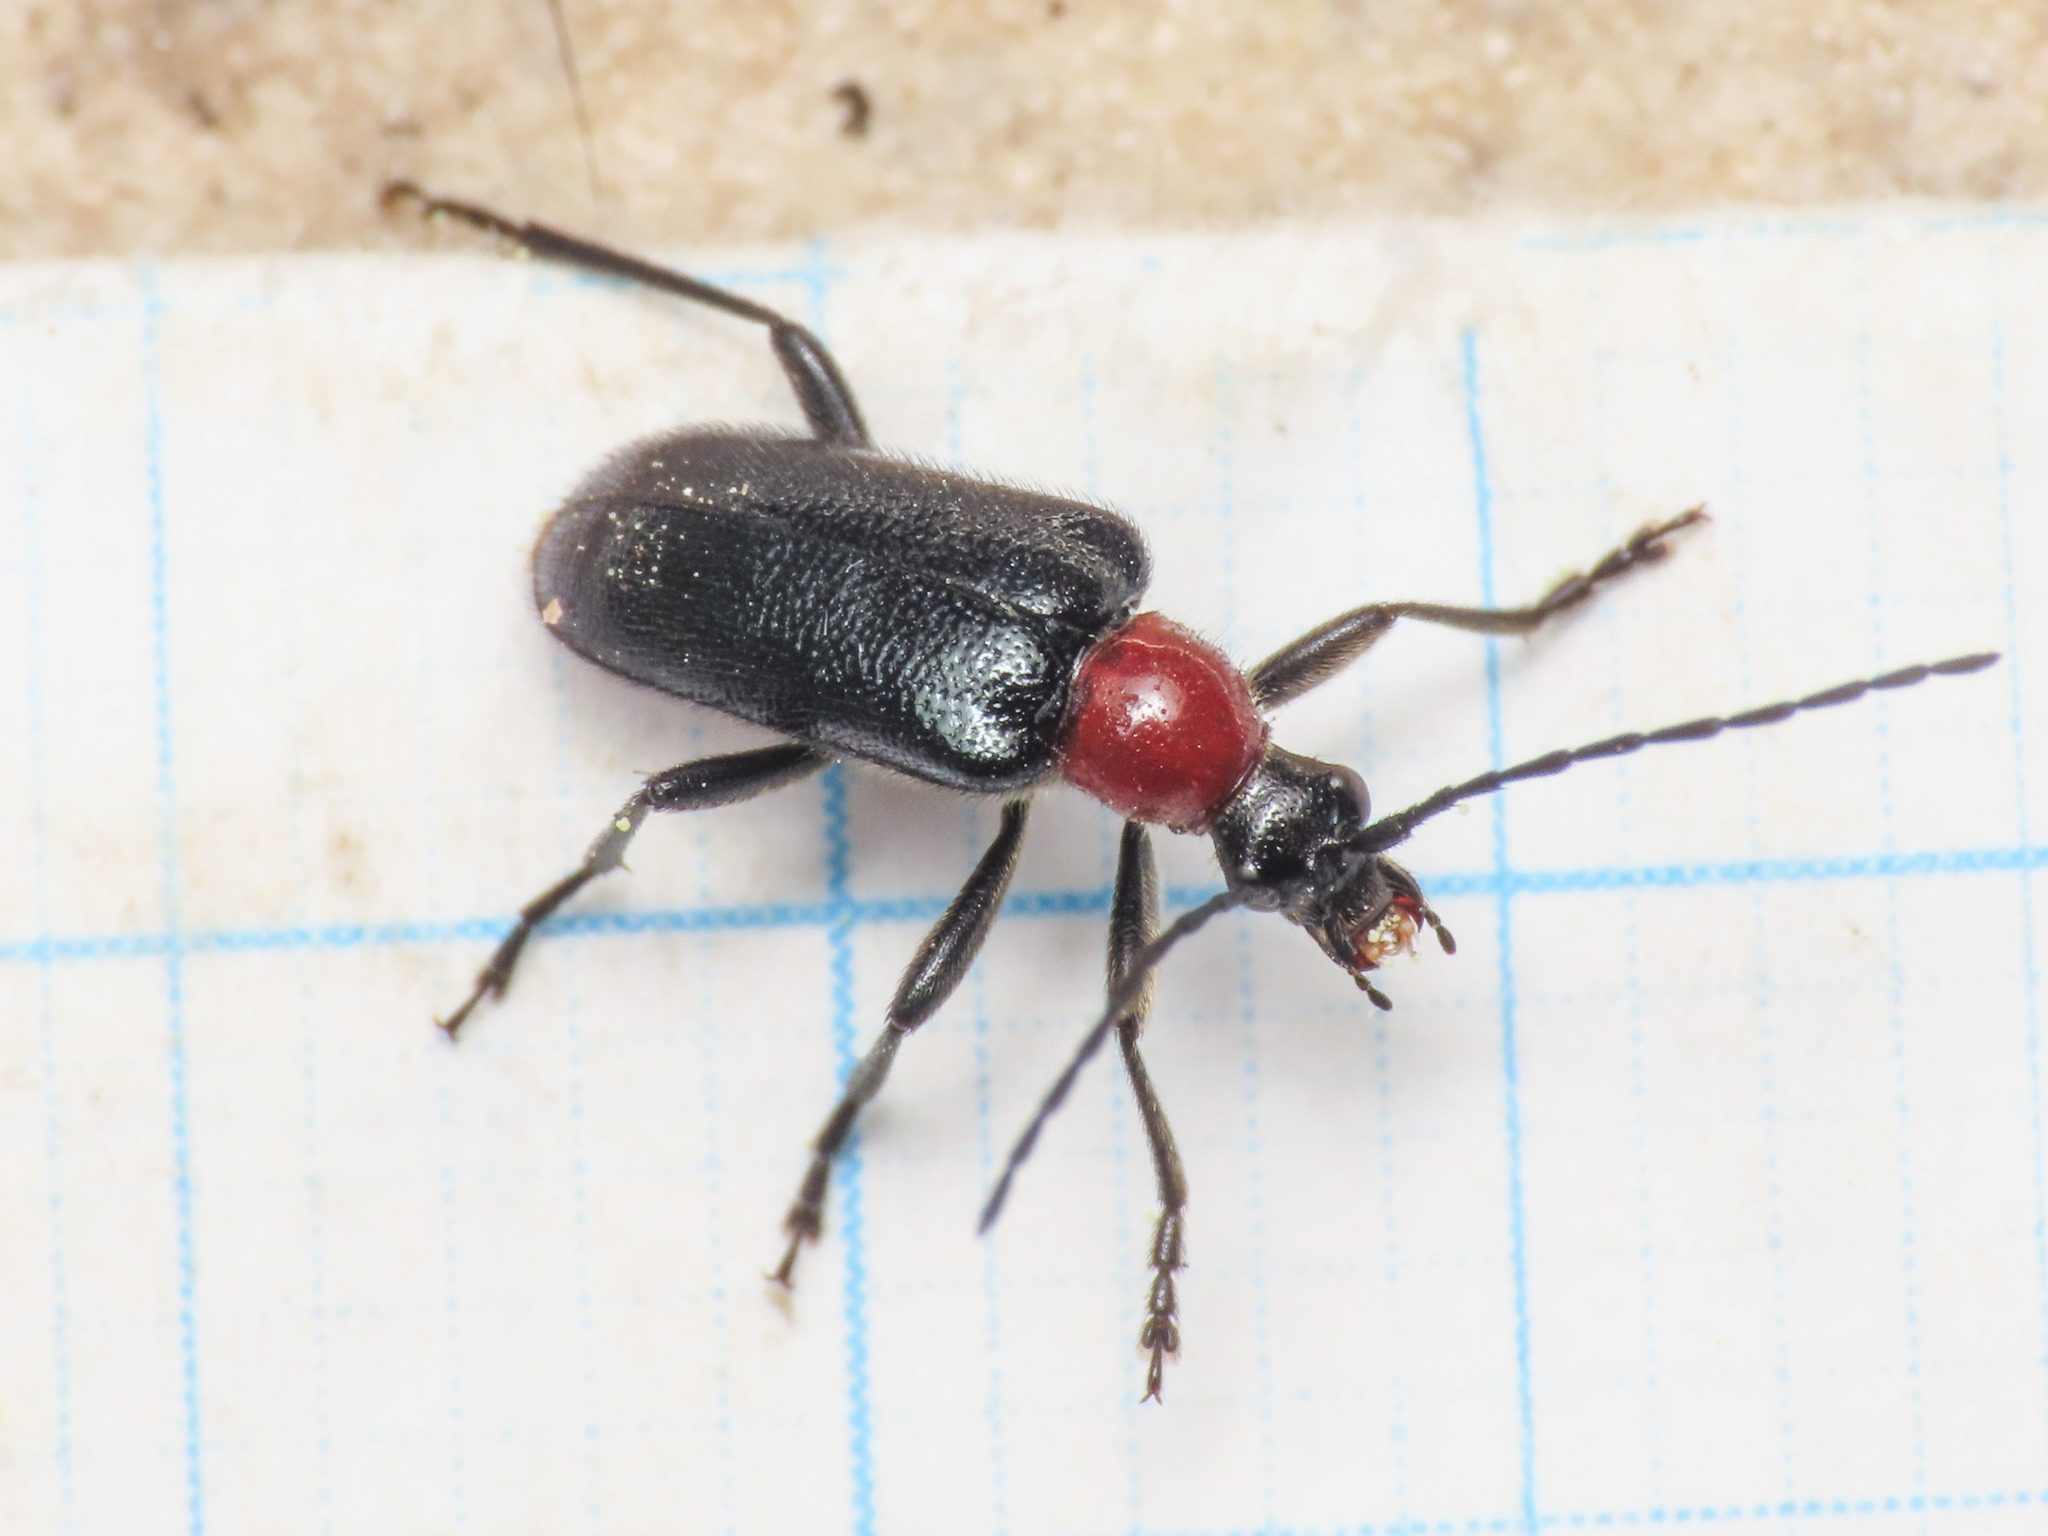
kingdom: Animalia
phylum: Arthropoda
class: Insecta
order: Coleoptera
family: Cerambycidae
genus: Dinoptera
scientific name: Dinoptera collaris
